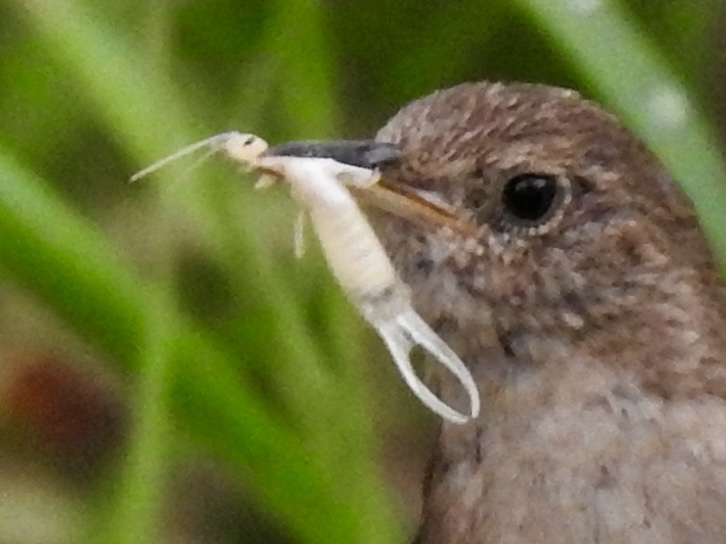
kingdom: Animalia
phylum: Arthropoda
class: Insecta
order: Dermaptera
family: Forficulidae
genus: Forficula
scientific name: Forficula
